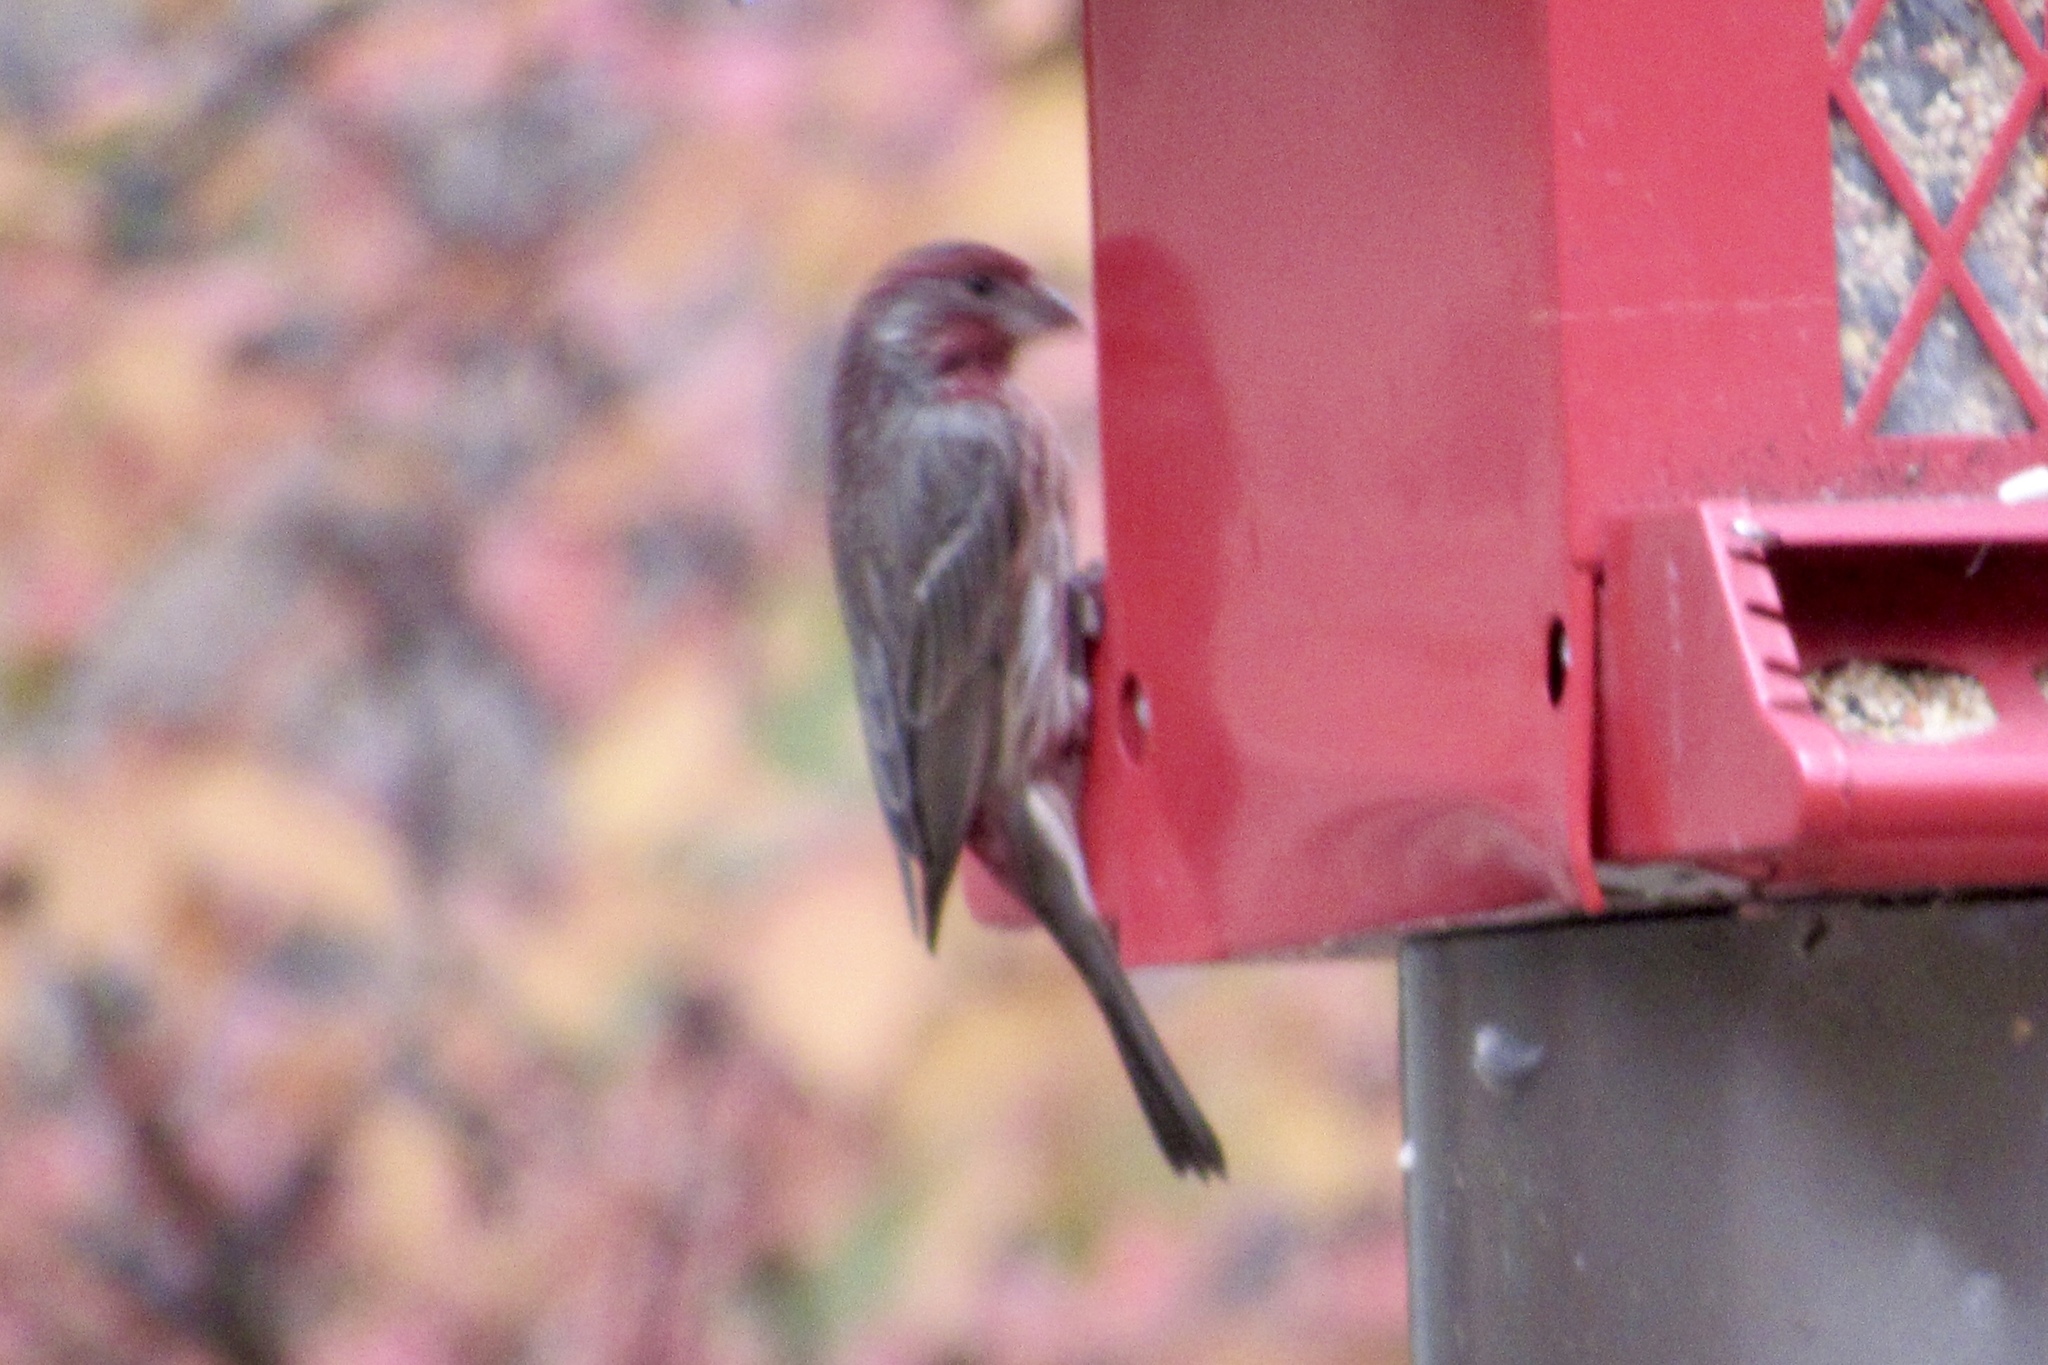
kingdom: Animalia
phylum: Chordata
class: Aves
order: Passeriformes
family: Fringillidae
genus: Haemorhous
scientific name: Haemorhous mexicanus
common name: House finch
